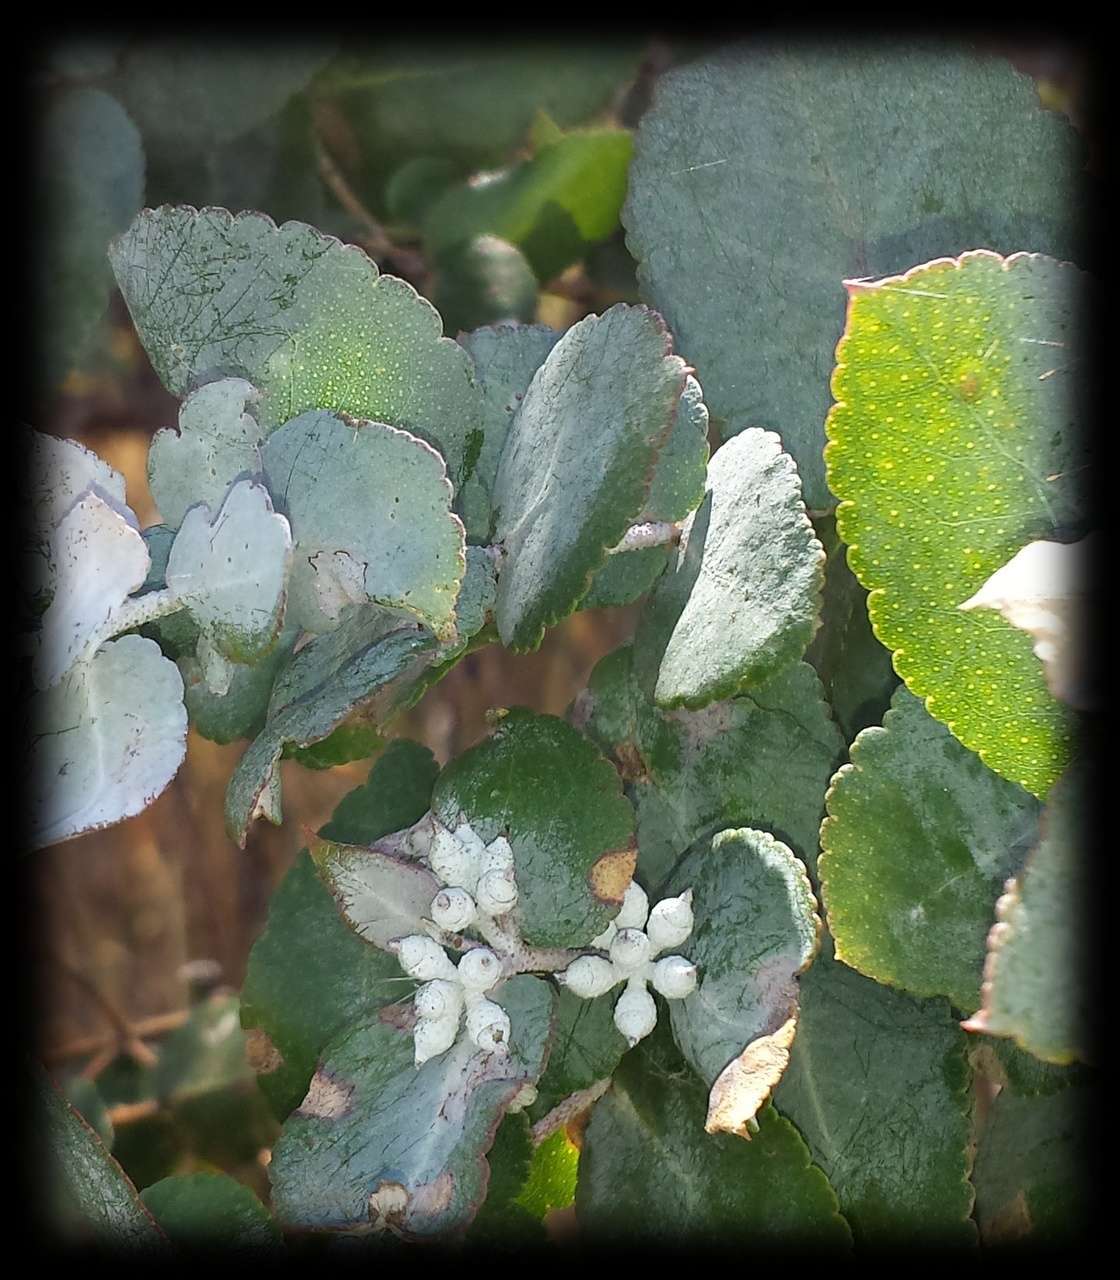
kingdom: Plantae
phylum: Tracheophyta
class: Magnoliopsida
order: Myrtales
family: Myrtaceae
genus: Eucalyptus
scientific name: Eucalyptus crenulata
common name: Buxton gum
